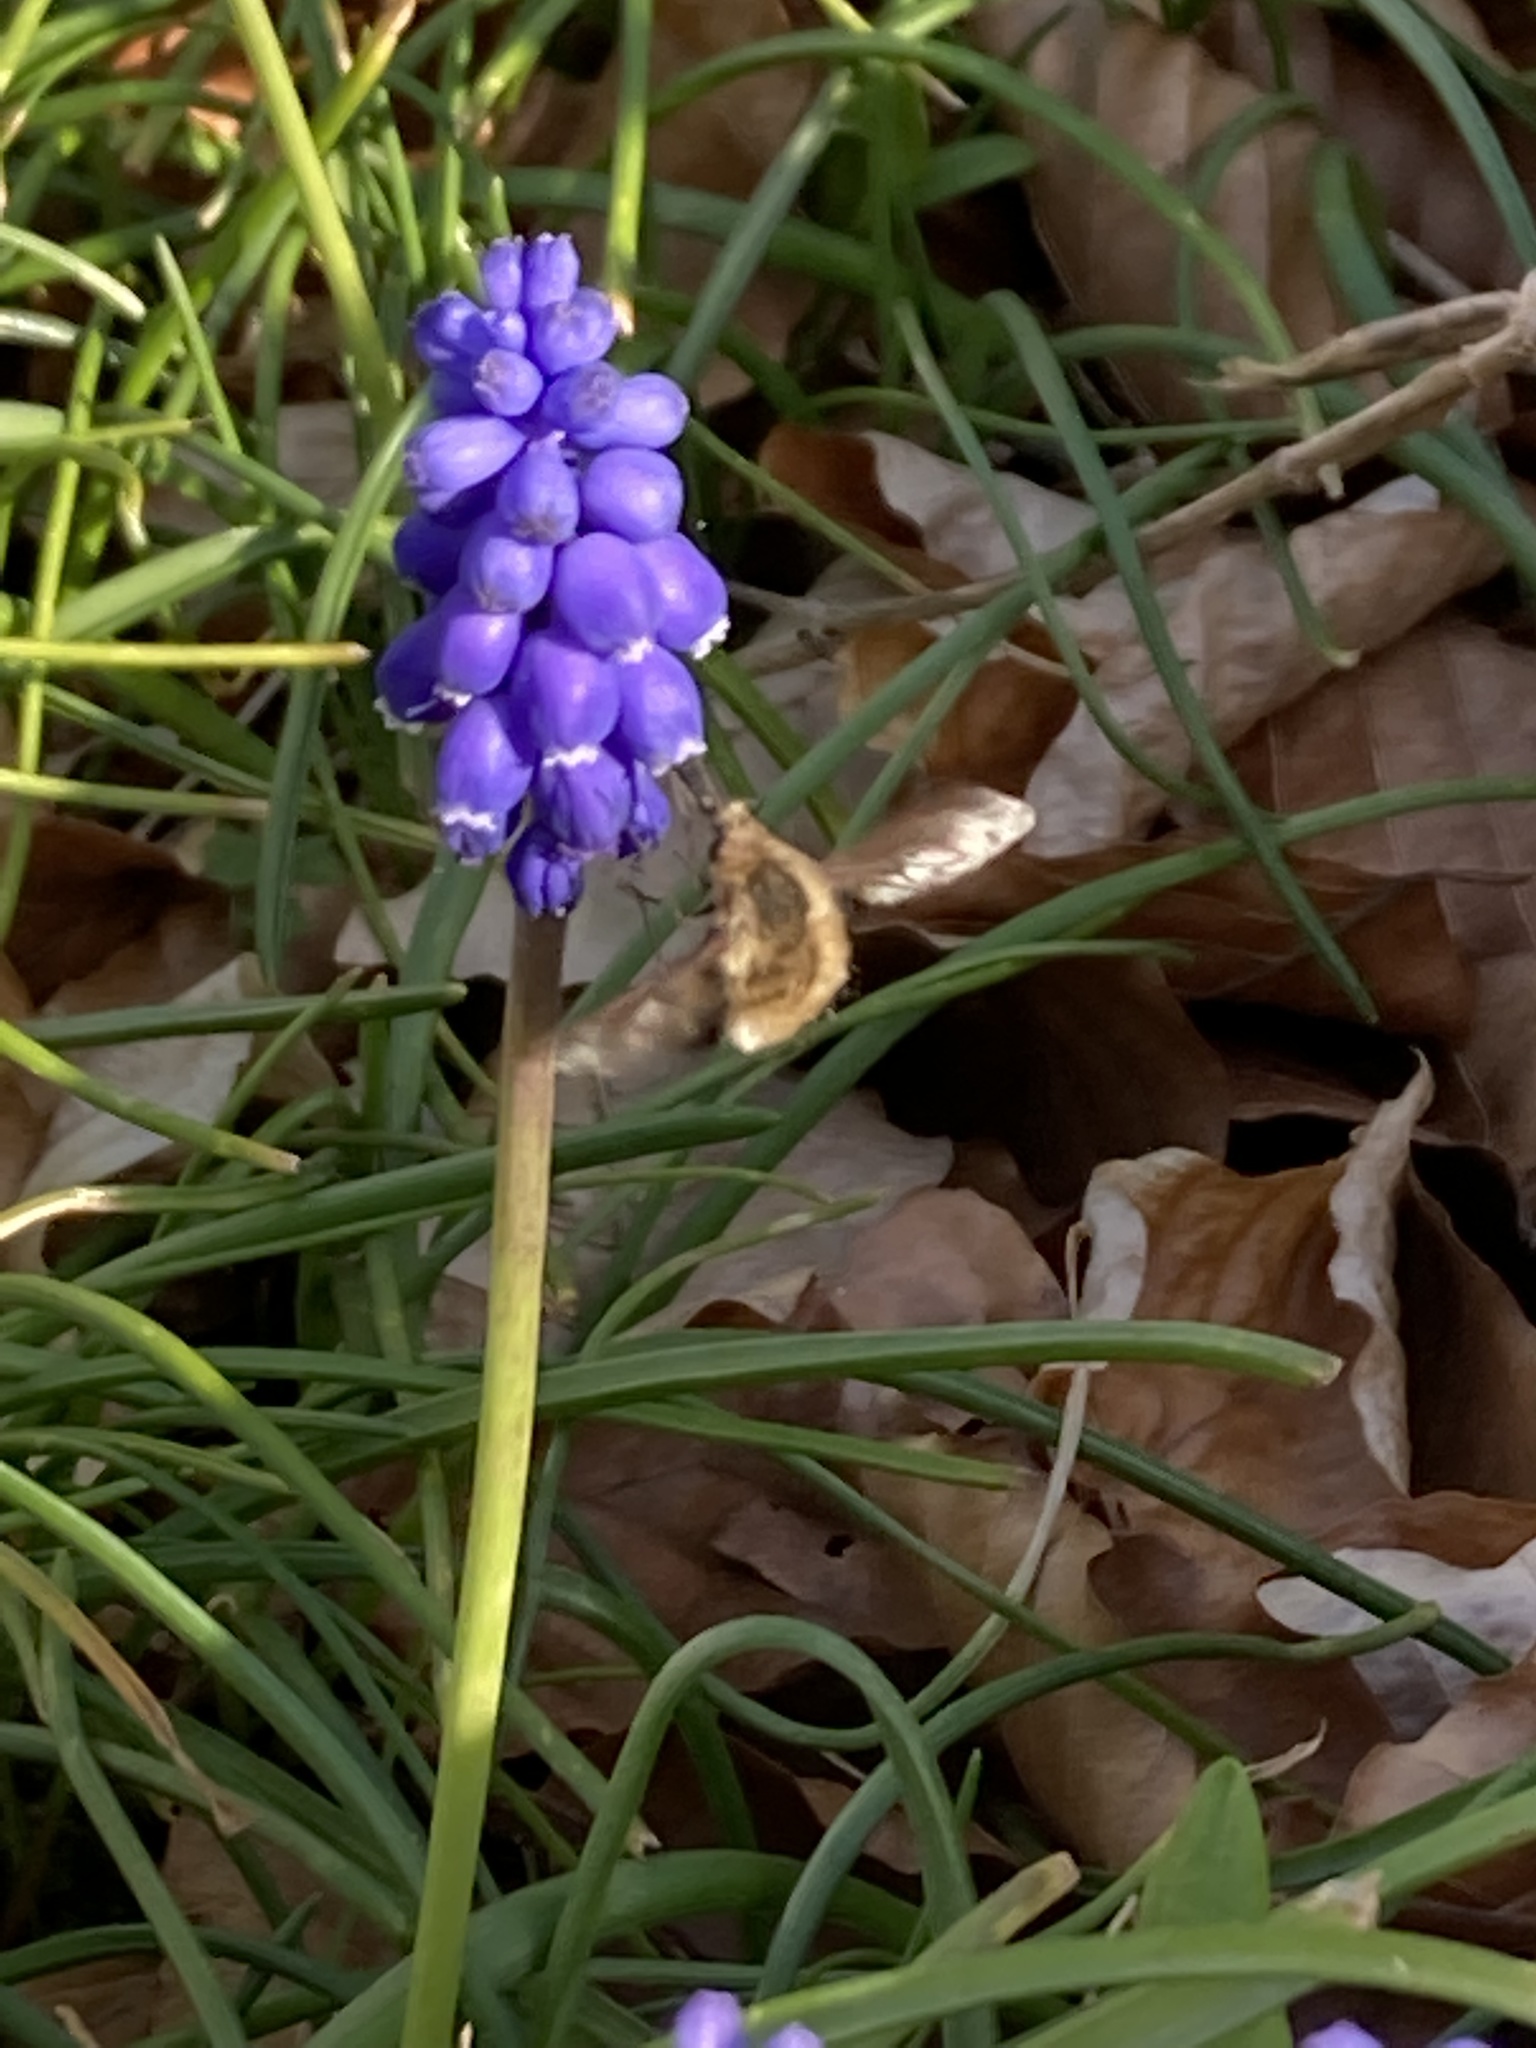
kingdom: Animalia
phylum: Arthropoda
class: Insecta
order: Diptera
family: Bombyliidae
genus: Bombylius
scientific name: Bombylius major
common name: Bee fly
